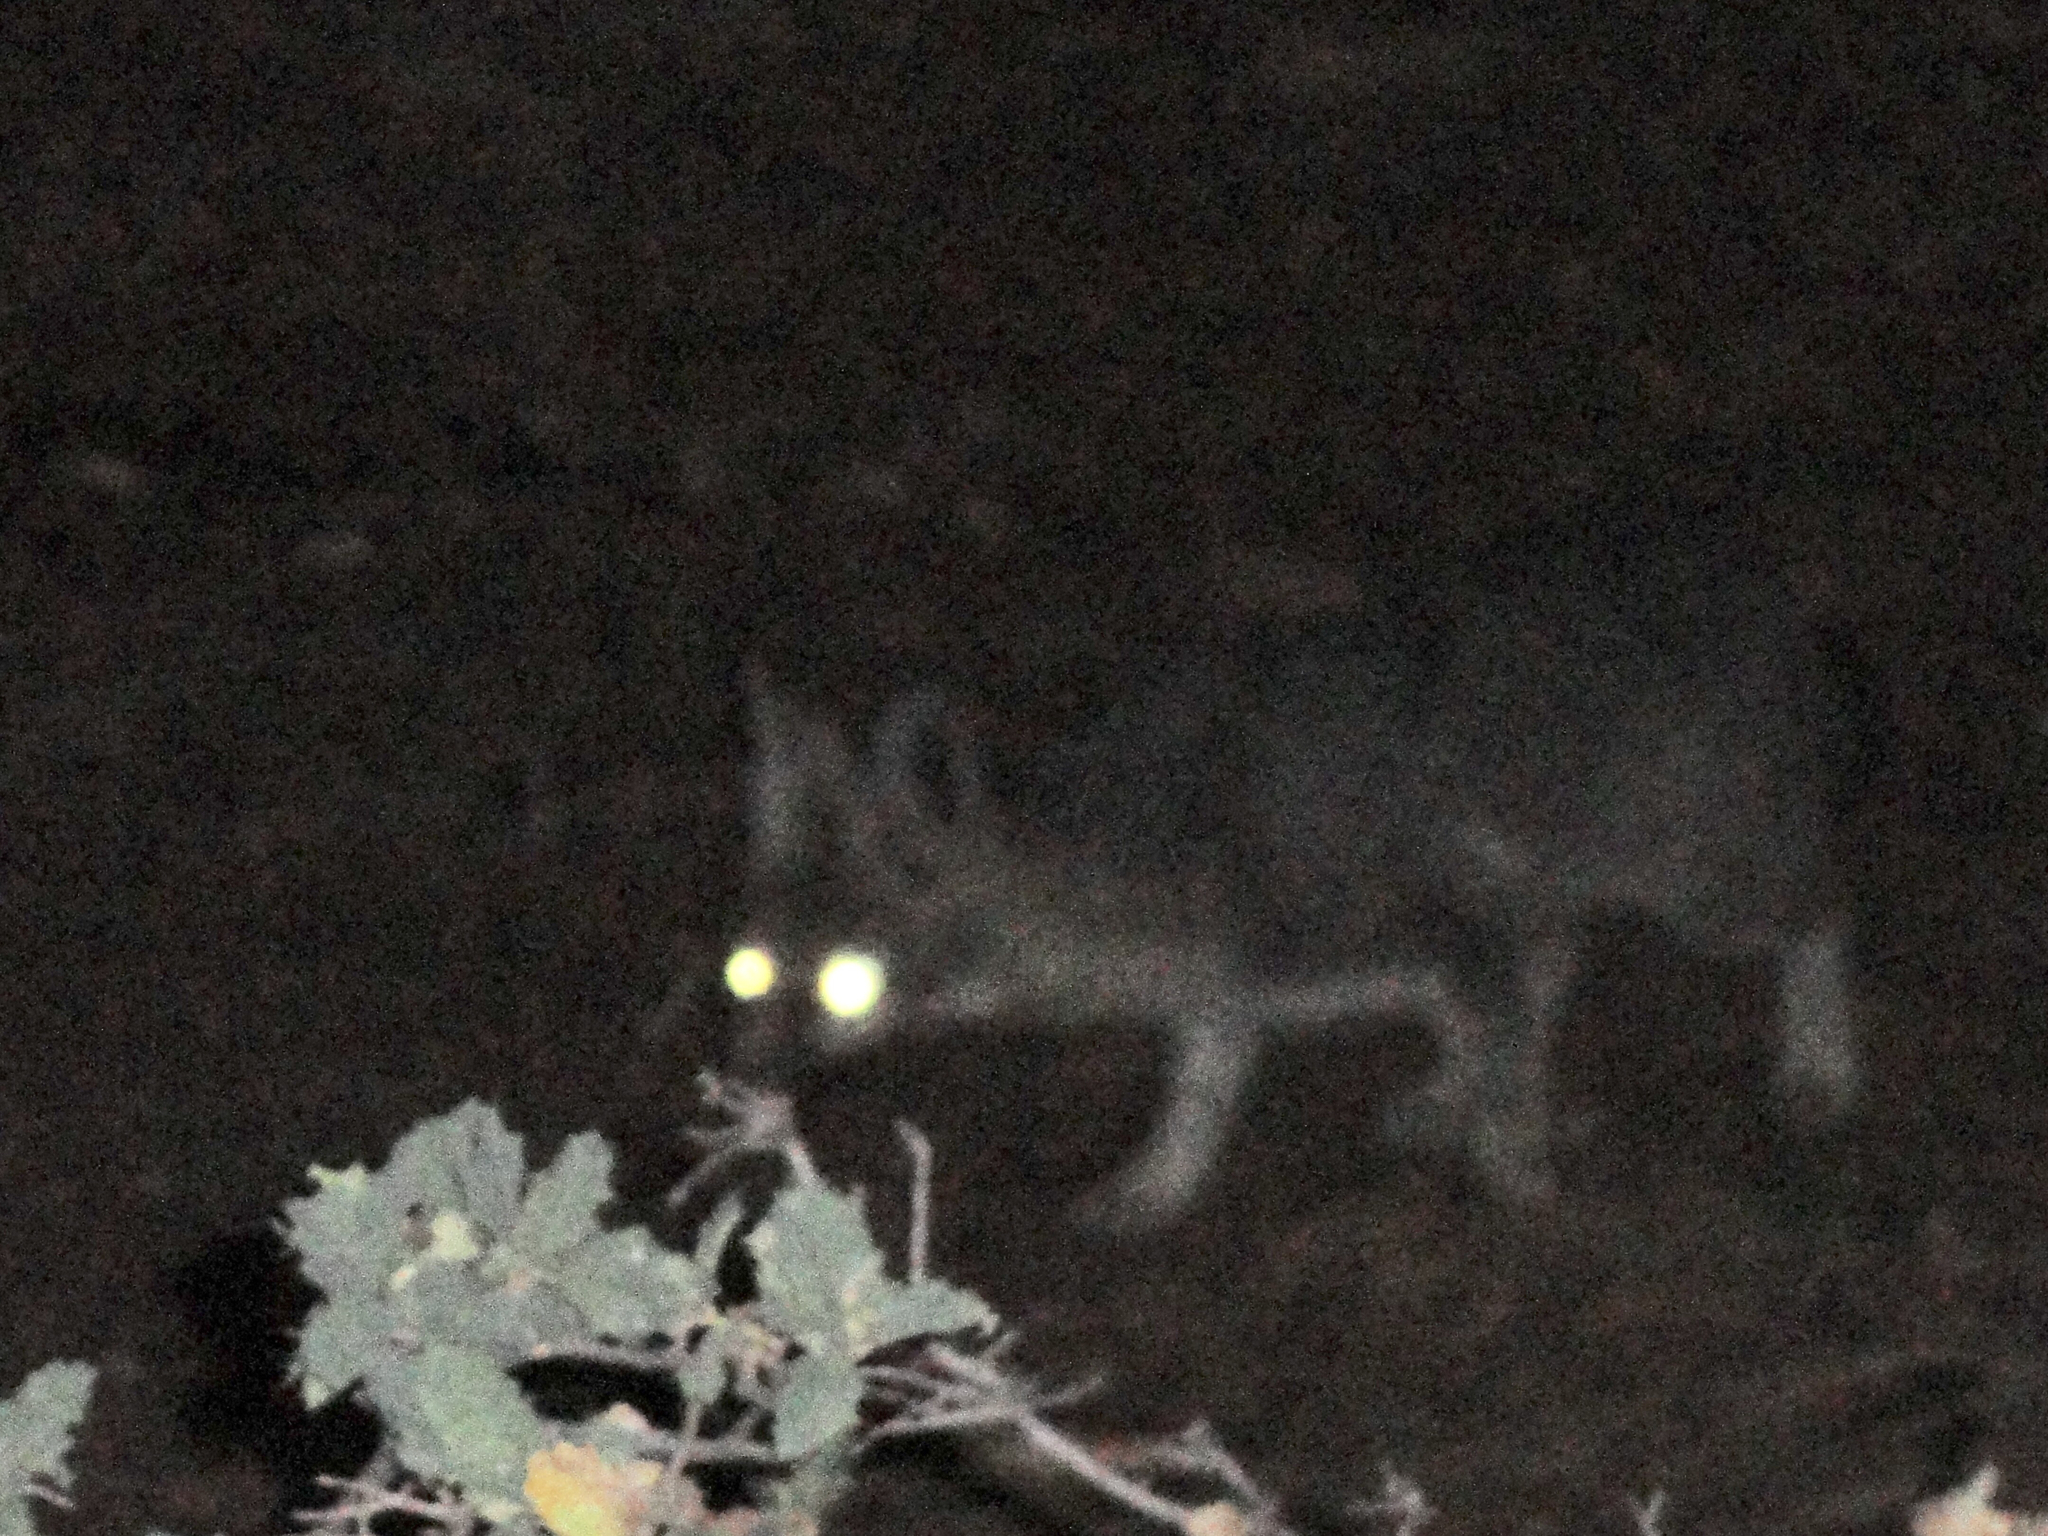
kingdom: Animalia
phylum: Chordata
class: Mammalia
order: Carnivora
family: Canidae
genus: Vulpes
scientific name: Vulpes macrotis
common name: Kit fox
